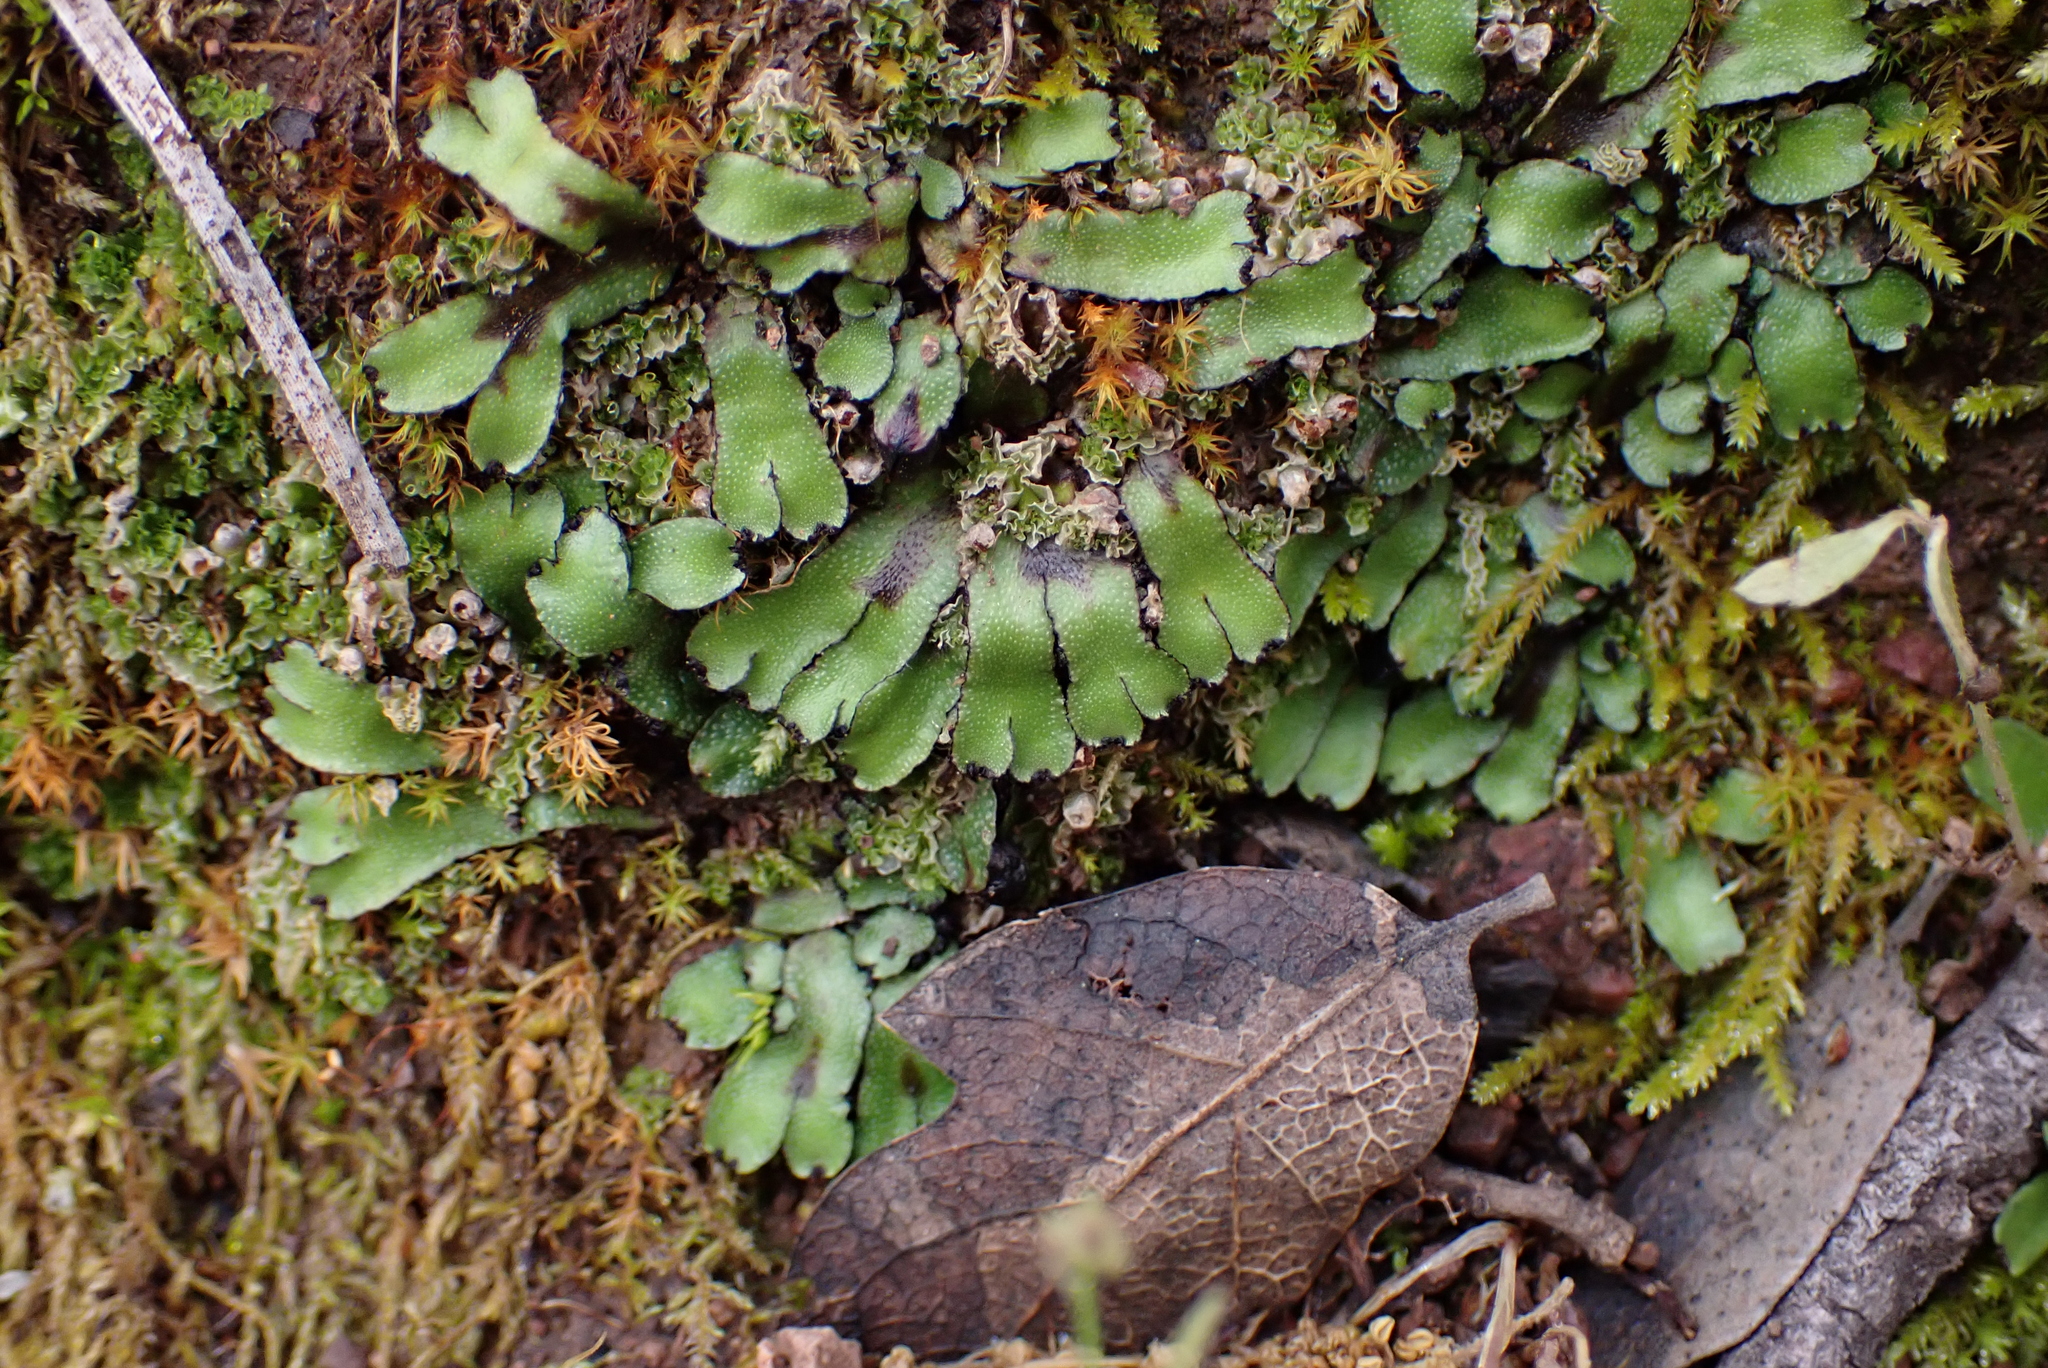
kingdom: Plantae
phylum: Marchantiophyta
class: Marchantiopsida
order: Marchantiales
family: Targioniaceae
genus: Targionia
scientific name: Targionia hypophylla
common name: Orobus-seed liverwort
